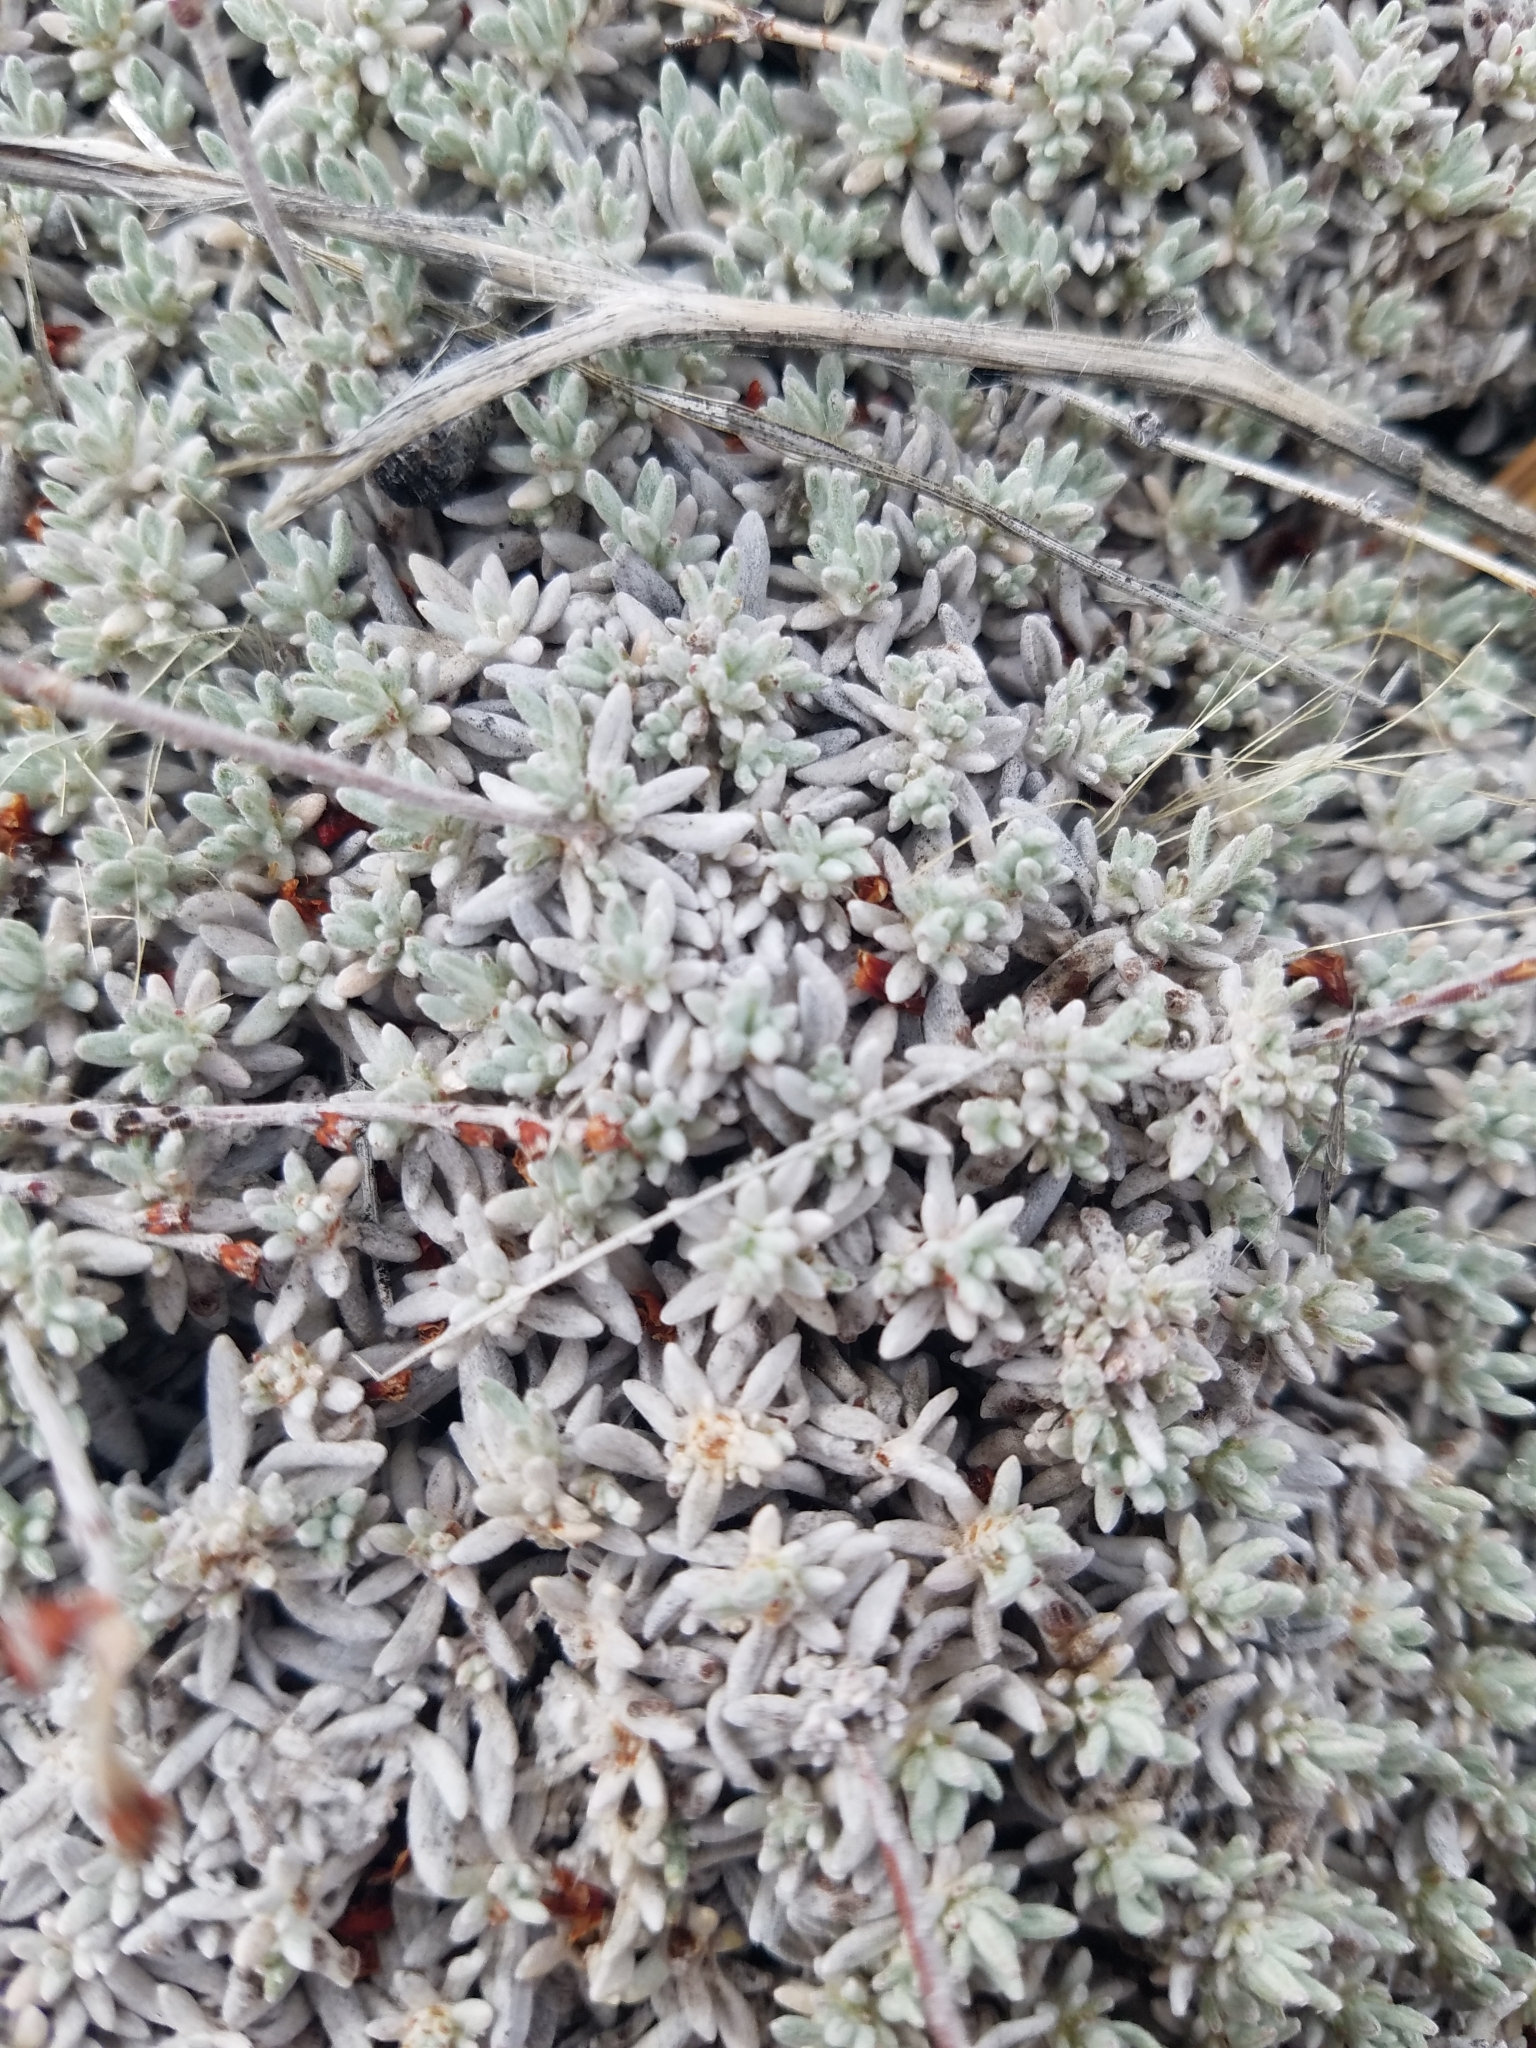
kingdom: Plantae
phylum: Tracheophyta
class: Magnoliopsida
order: Caryophyllales
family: Polygonaceae
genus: Eriogonum
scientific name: Eriogonum wrightii
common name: Bastard-sage
